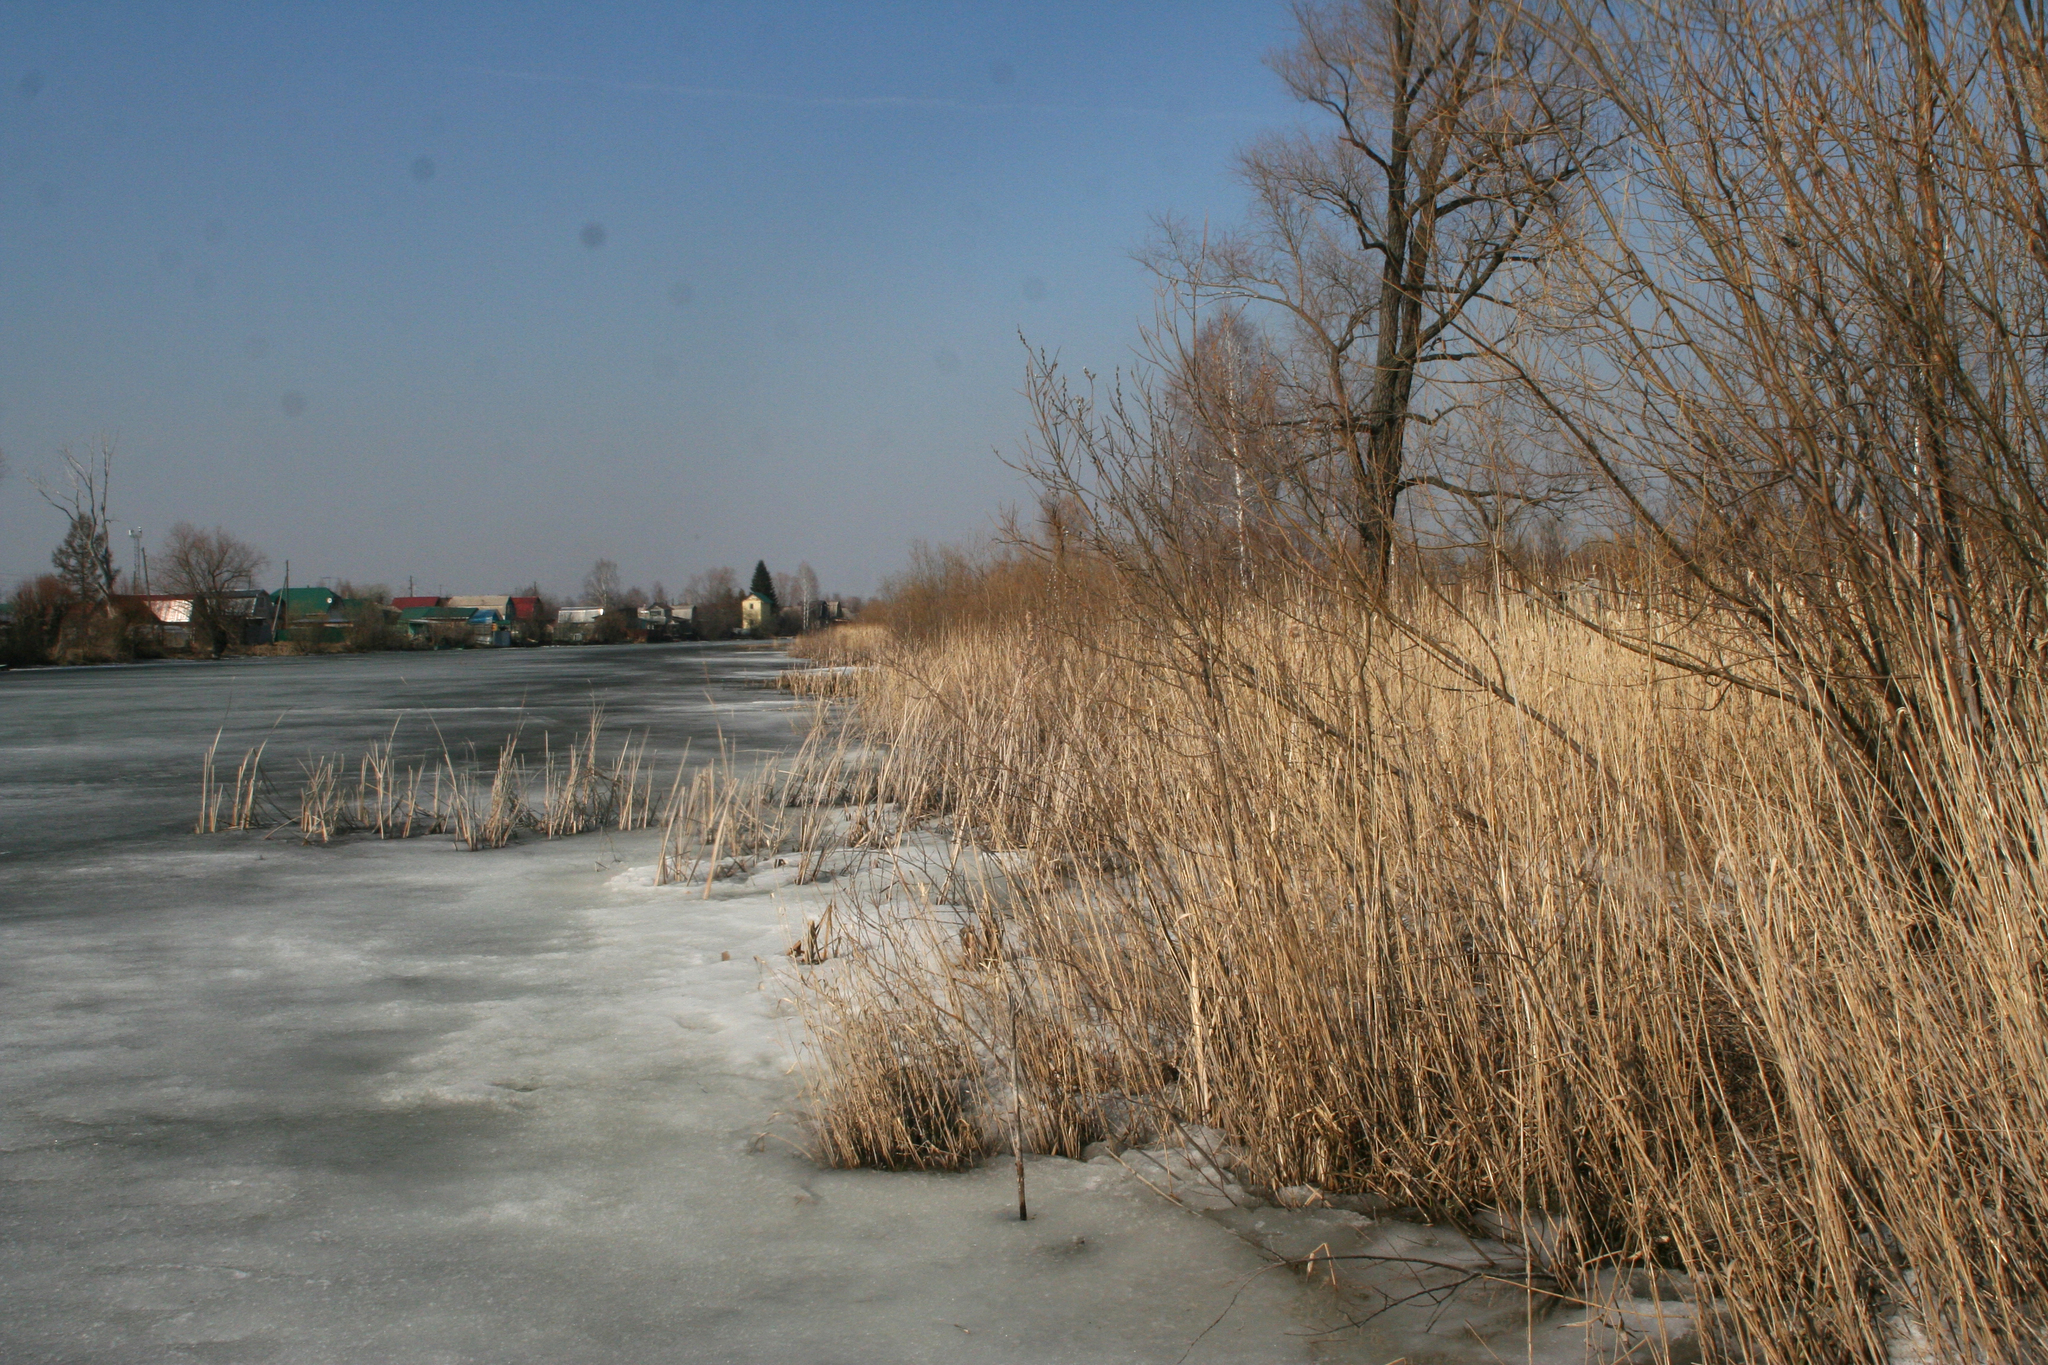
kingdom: Plantae
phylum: Tracheophyta
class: Magnoliopsida
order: Malpighiales
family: Salicaceae
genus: Salix
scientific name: Salix alba
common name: White willow
